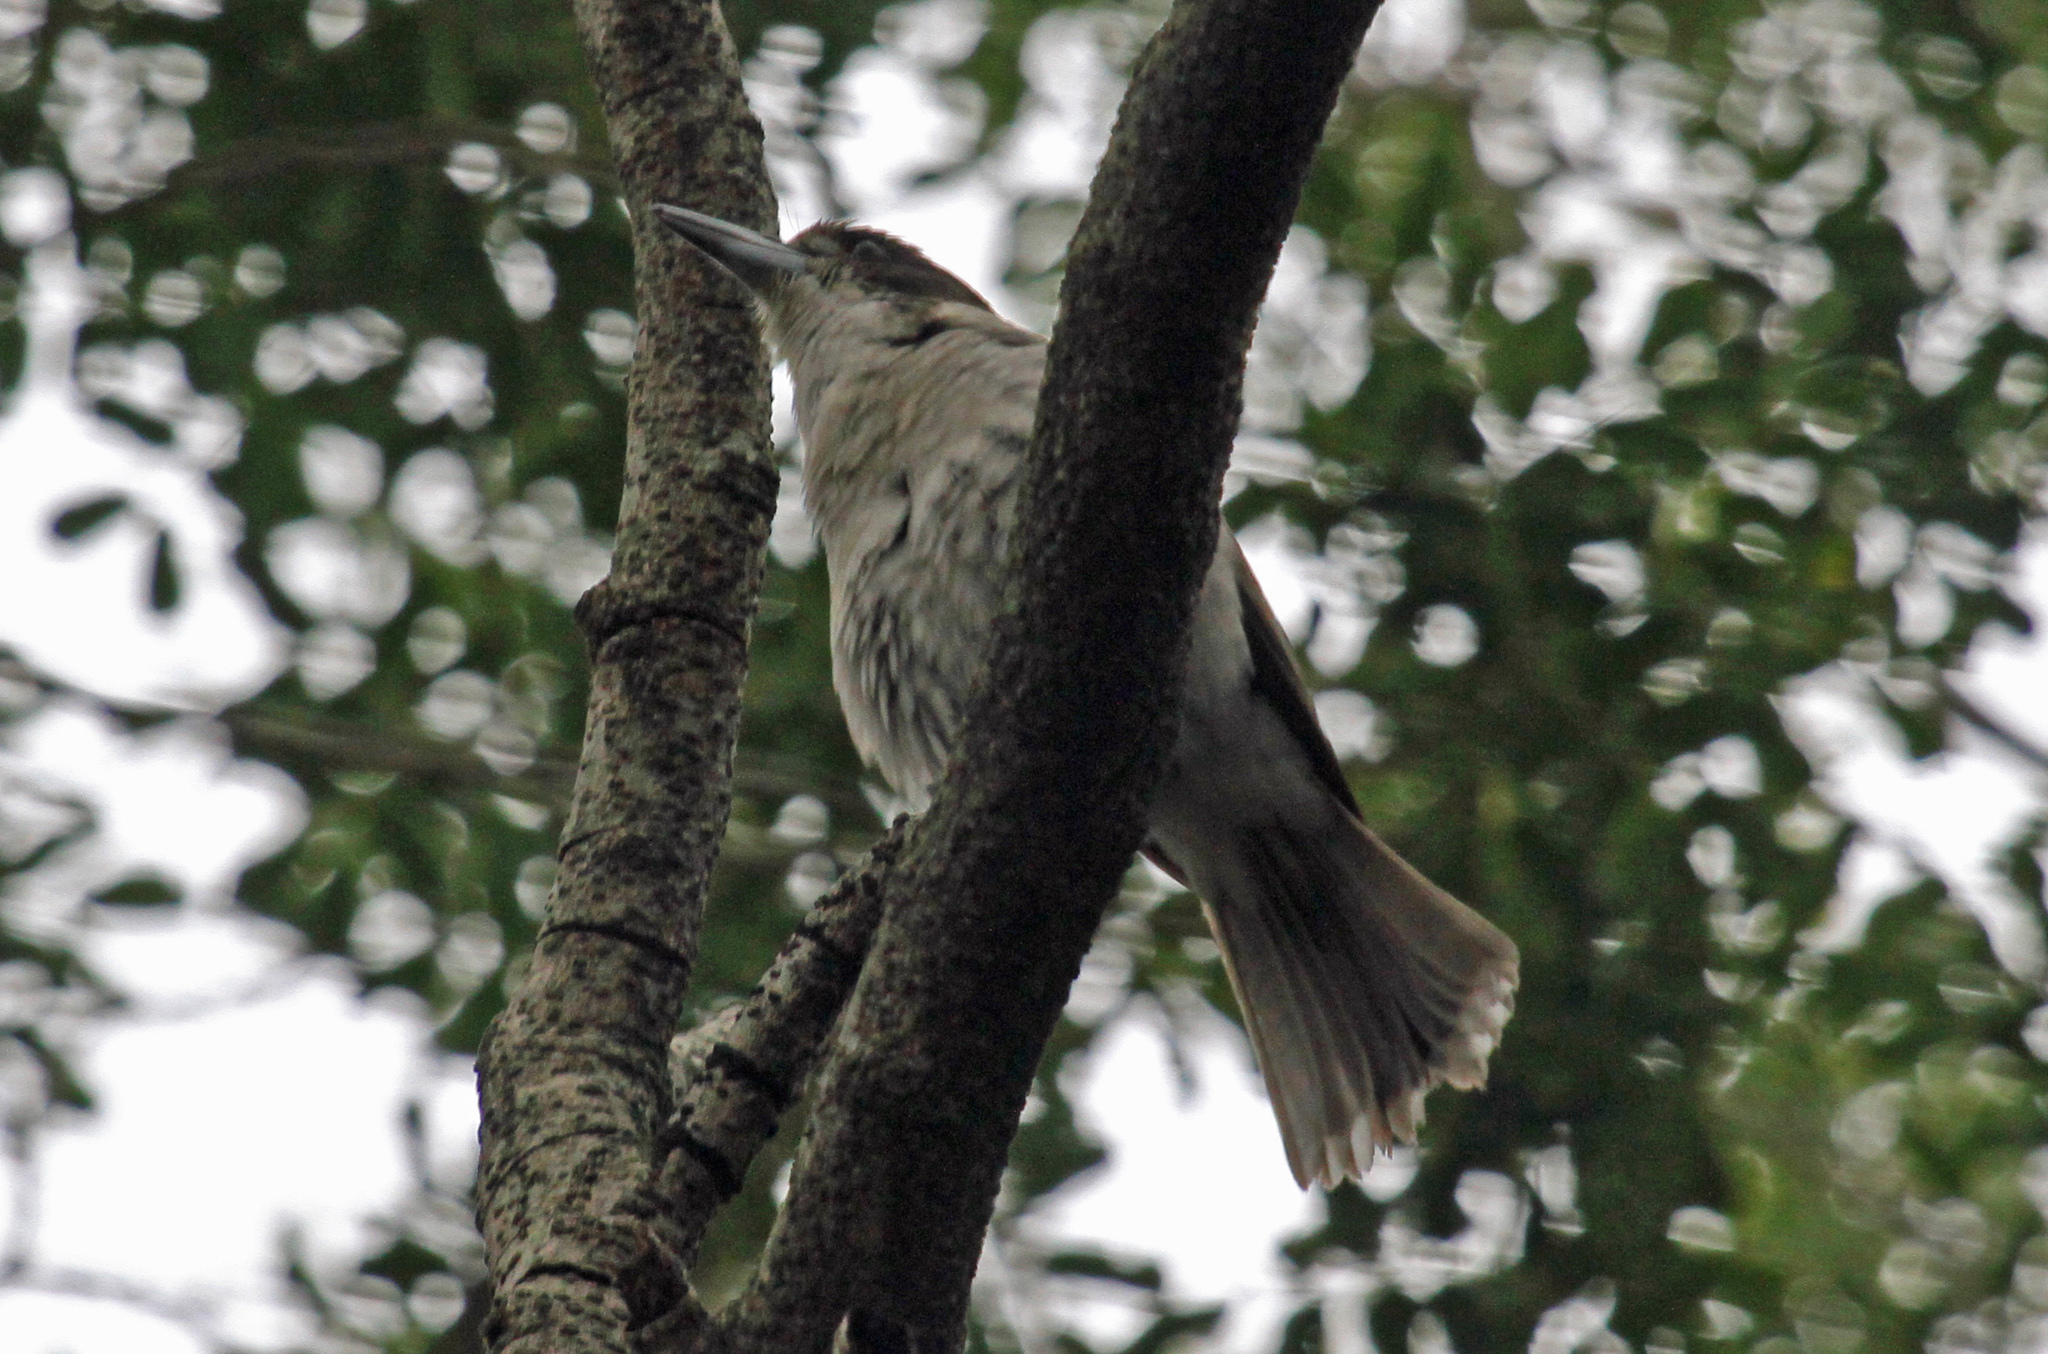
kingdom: Animalia
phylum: Chordata
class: Aves
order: Passeriformes
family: Cracticidae
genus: Cracticus
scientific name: Cracticus torquatus
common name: Grey butcherbird
